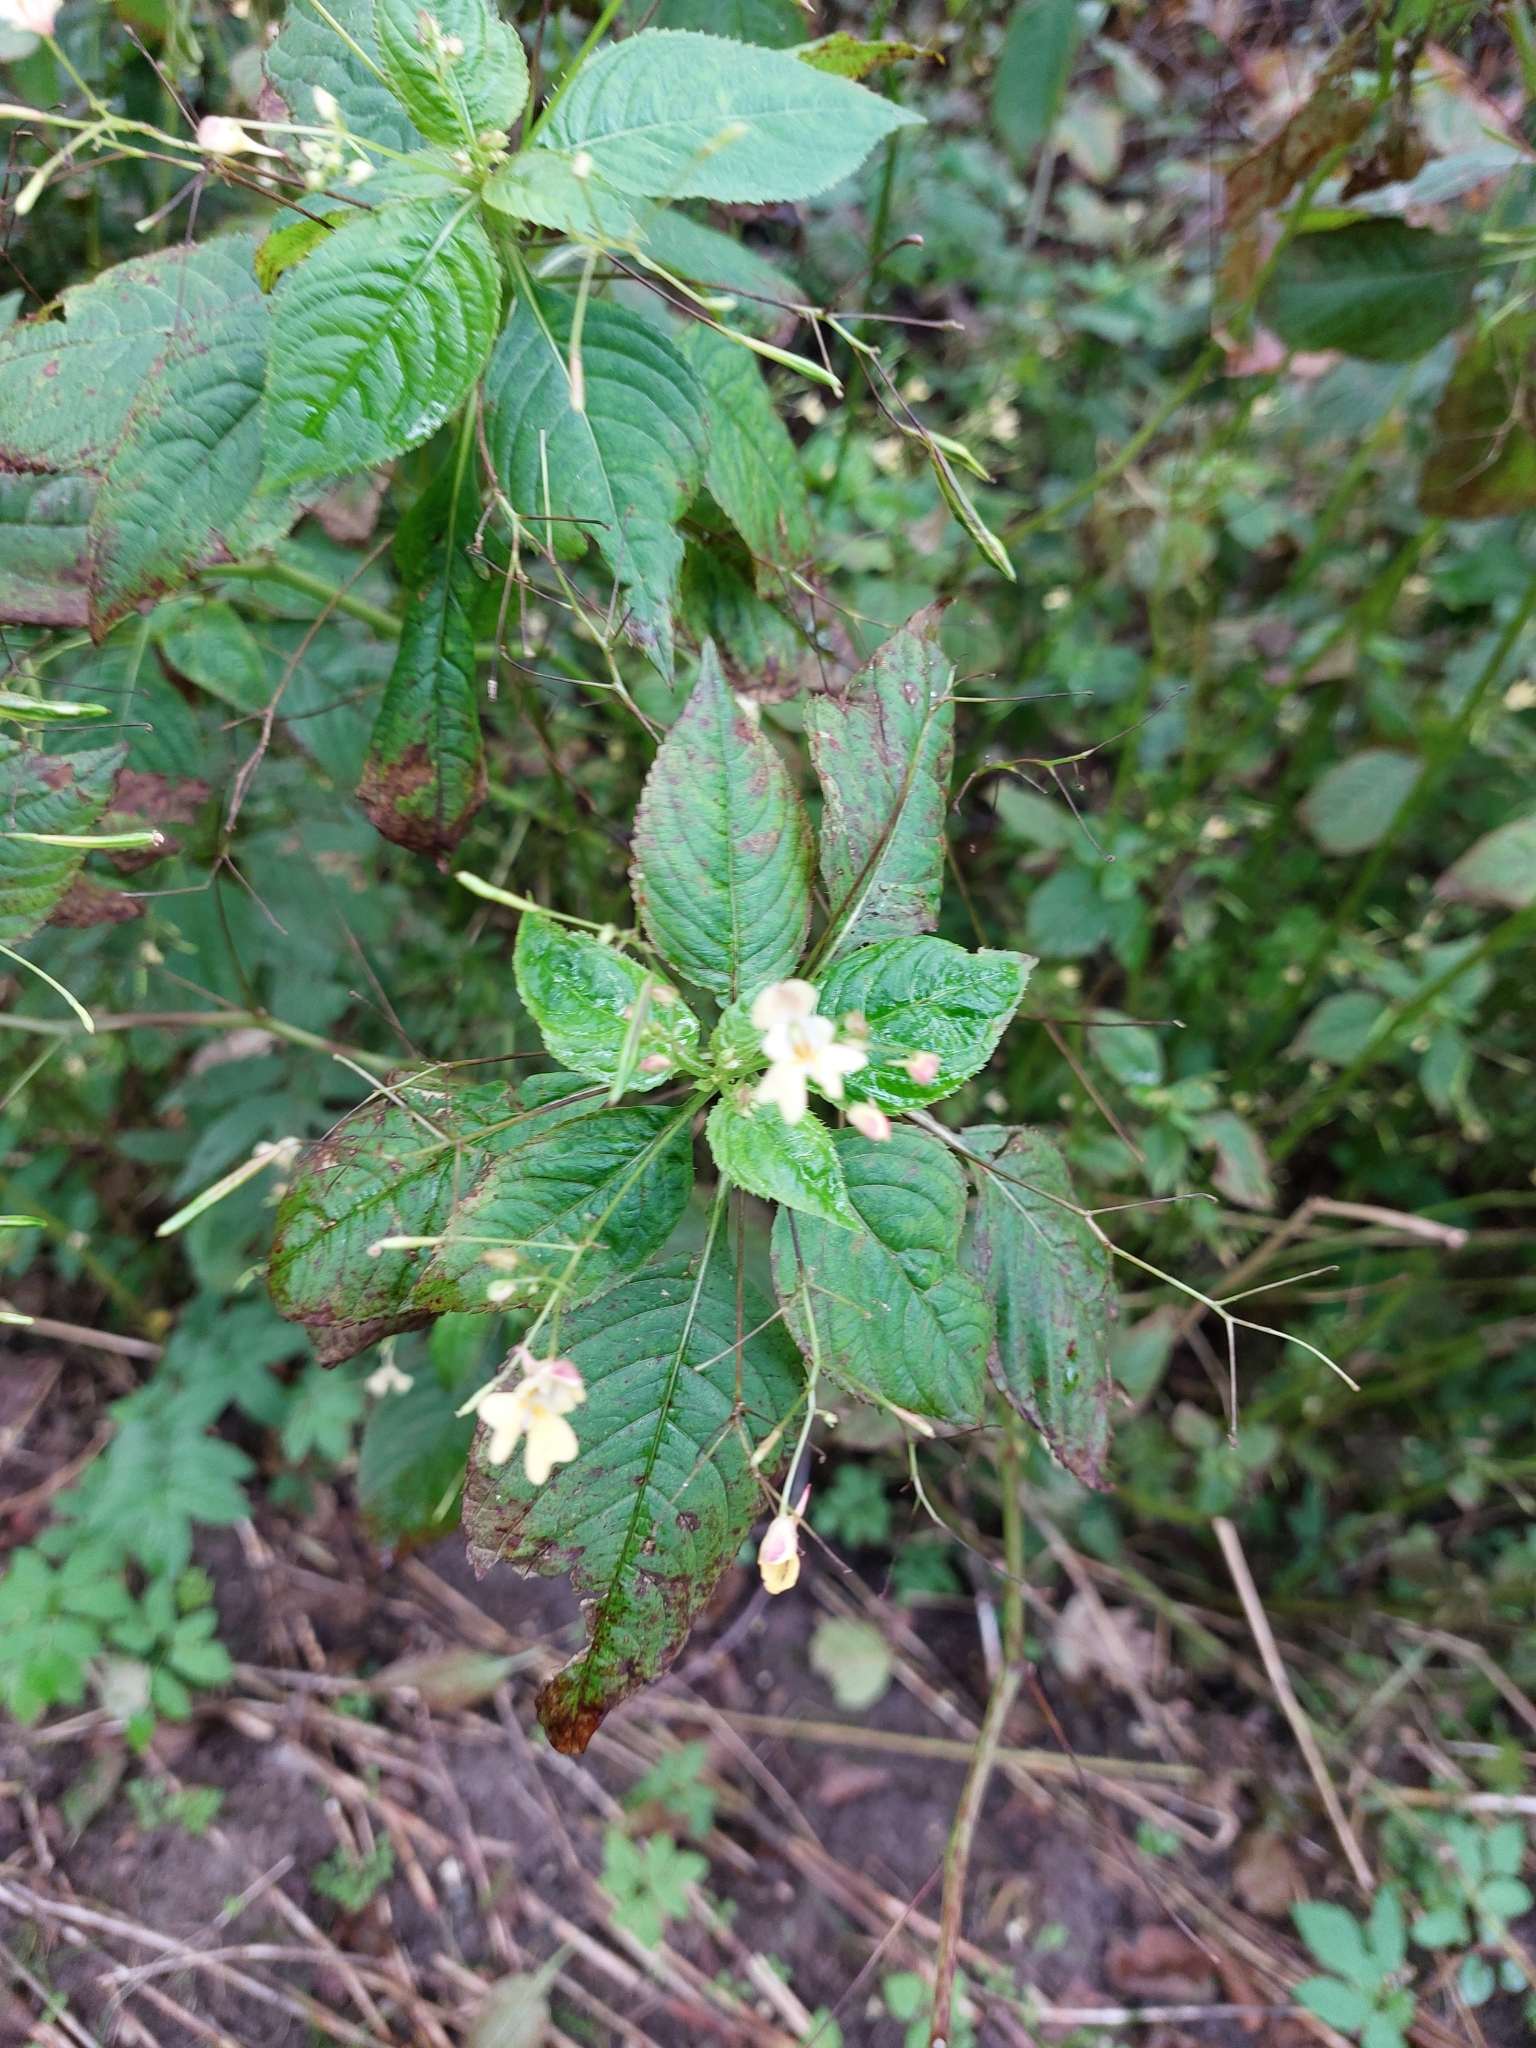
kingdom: Plantae
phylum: Tracheophyta
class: Magnoliopsida
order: Ericales
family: Balsaminaceae
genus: Impatiens
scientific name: Impatiens parviflora
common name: Small balsam
